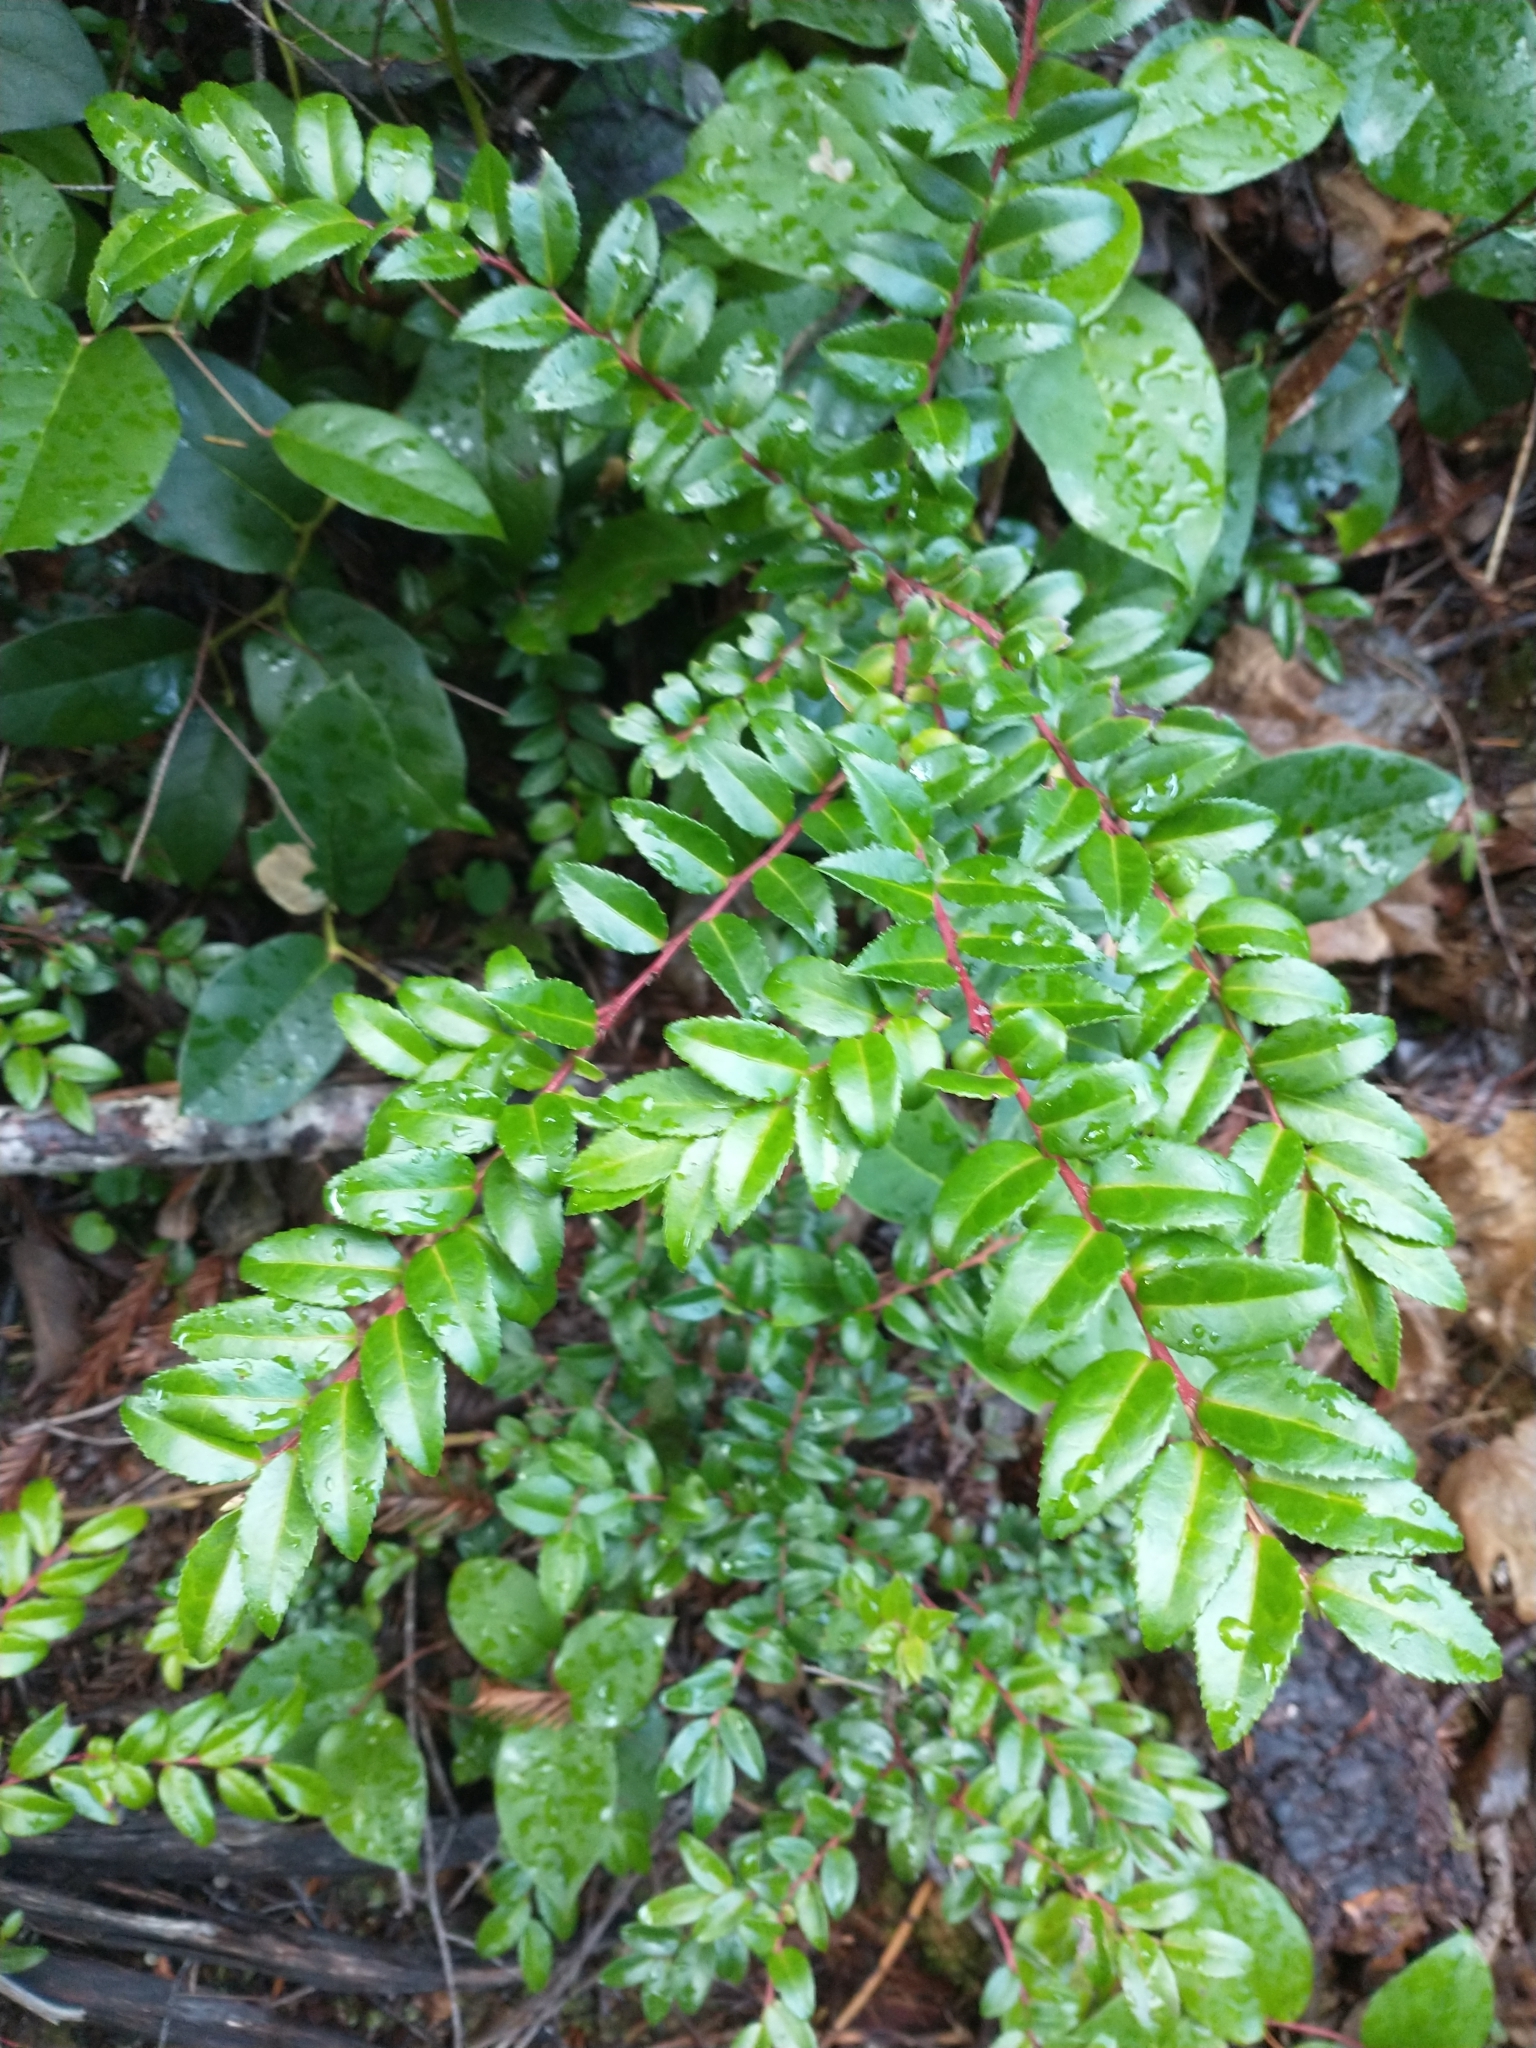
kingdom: Plantae
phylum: Tracheophyta
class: Magnoliopsida
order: Ericales
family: Ericaceae
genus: Vaccinium
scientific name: Vaccinium ovatum
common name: California-huckleberry
